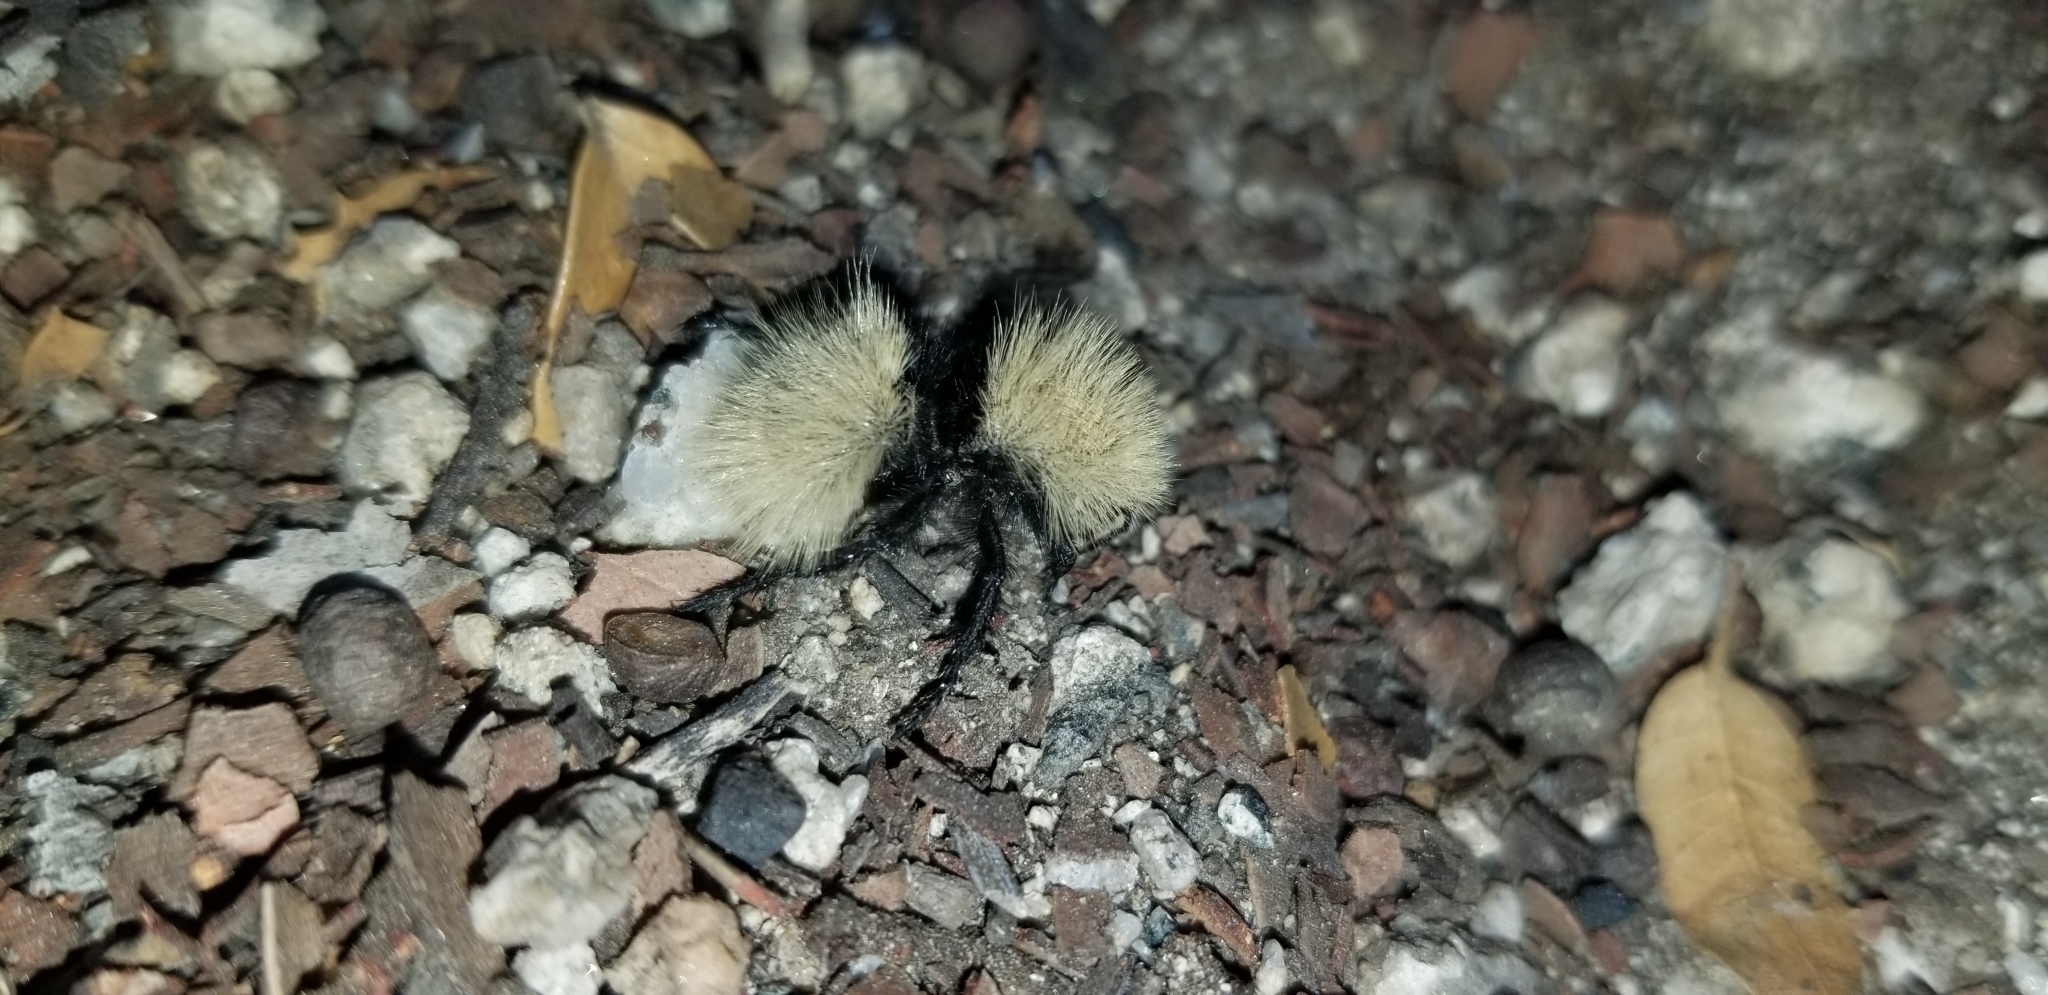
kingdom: Animalia
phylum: Arthropoda
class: Insecta
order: Hymenoptera
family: Mutillidae
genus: Dasymutilla
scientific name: Dasymutilla
